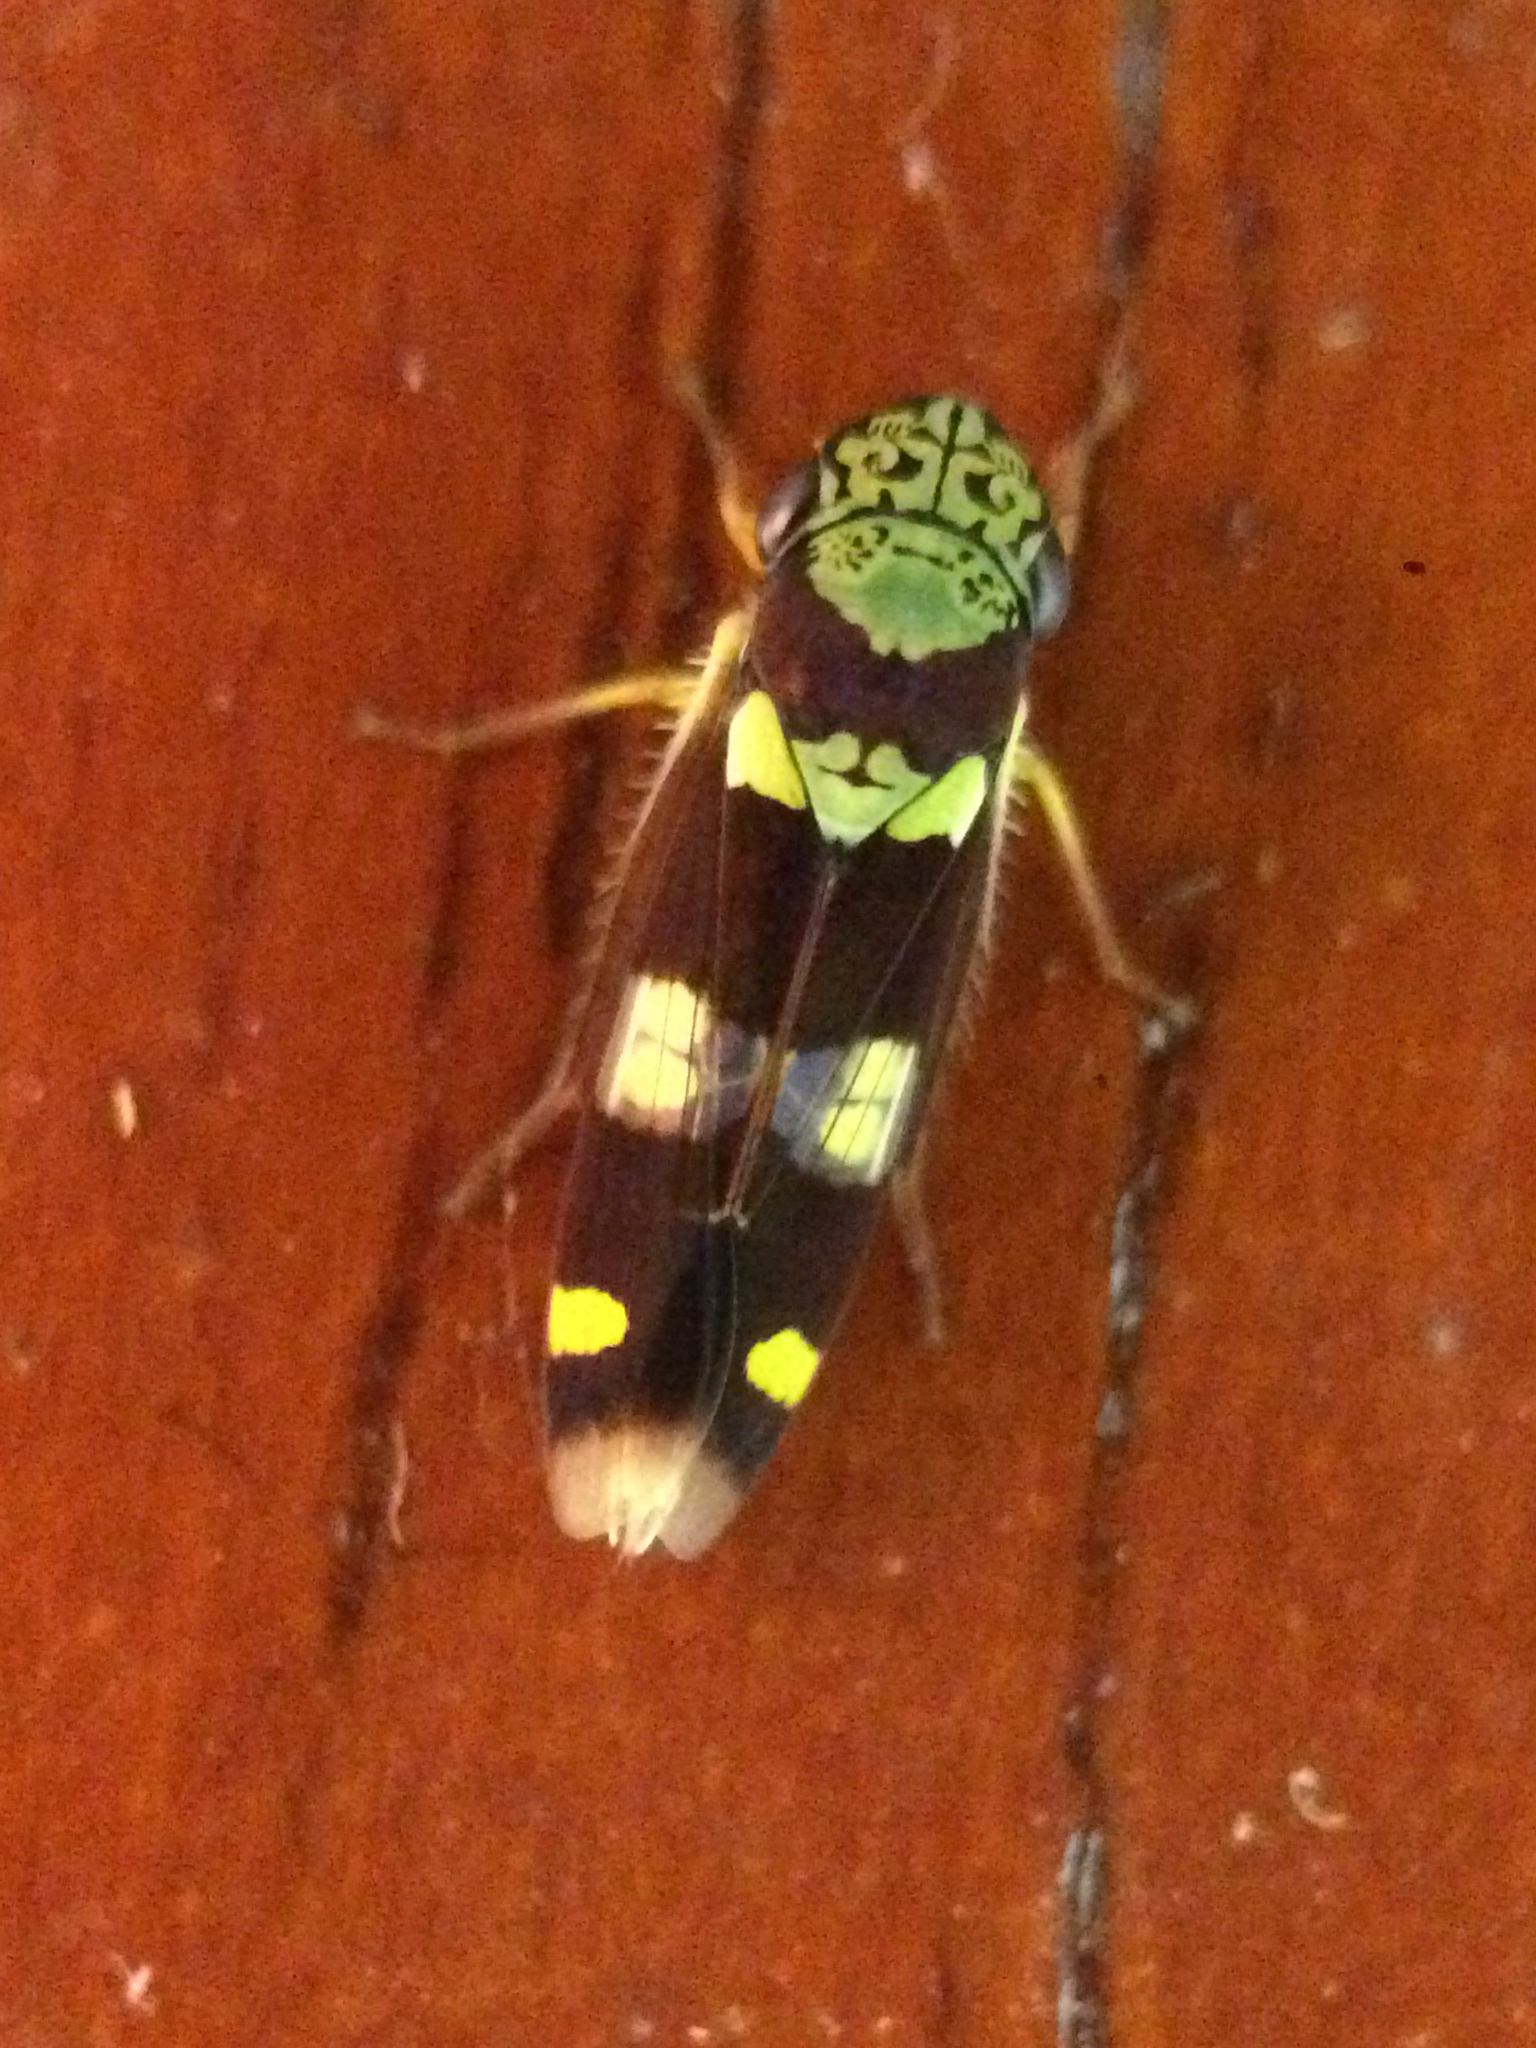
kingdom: Animalia
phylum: Arthropoda
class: Insecta
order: Hemiptera
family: Cicadellidae
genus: Dilobopterus
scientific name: Dilobopterus segmentalis
